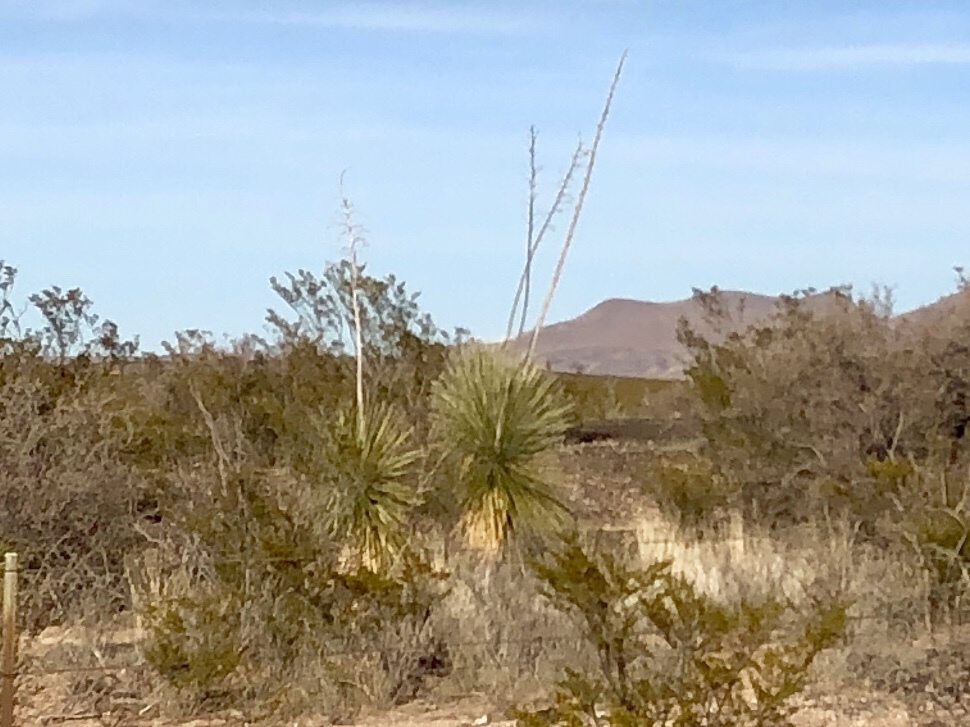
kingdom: Plantae
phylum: Tracheophyta
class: Liliopsida
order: Asparagales
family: Asparagaceae
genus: Yucca
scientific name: Yucca elata
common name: Palmella
